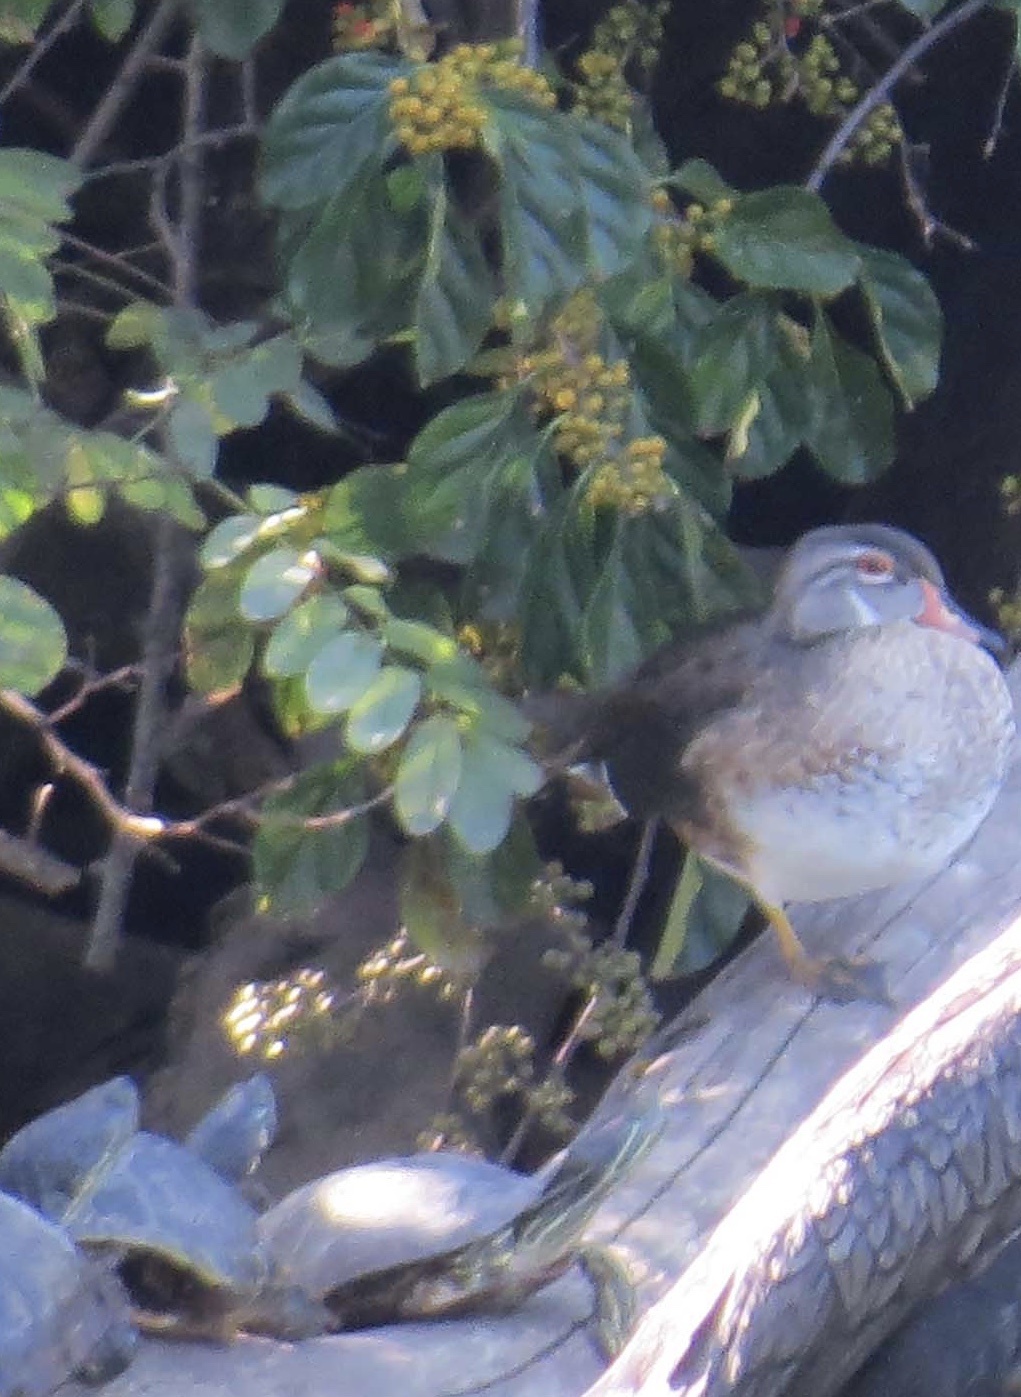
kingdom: Animalia
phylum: Chordata
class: Aves
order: Anseriformes
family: Anatidae
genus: Aix
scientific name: Aix sponsa
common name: Wood duck
